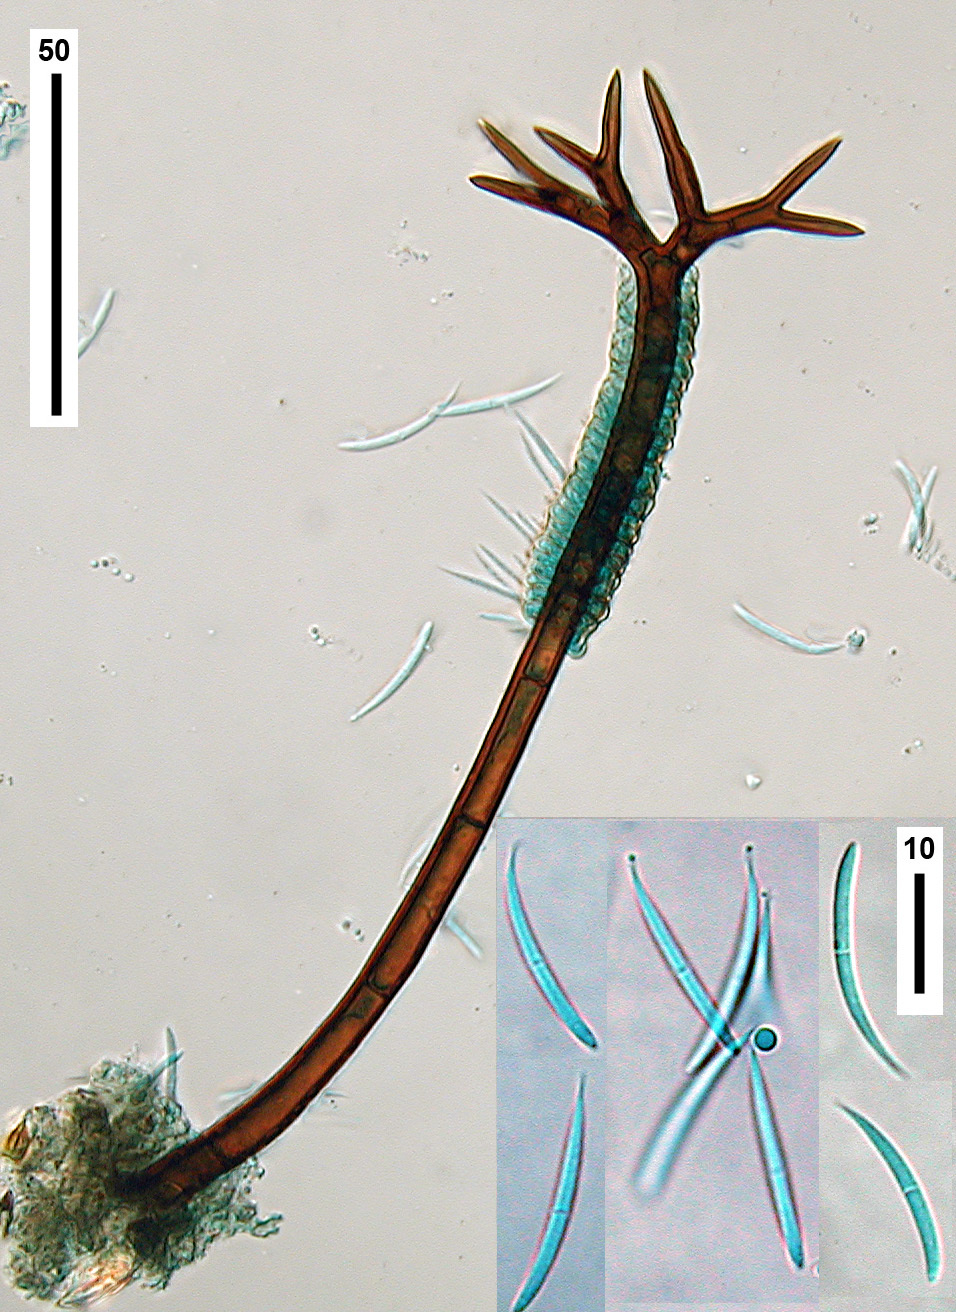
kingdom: Fungi
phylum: Ascomycota
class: Sordariomycetes
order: Chaetosphaeriales
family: Chaetosphaeriaceae
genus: Cryptophiale
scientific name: Cryptophiale udagawae
